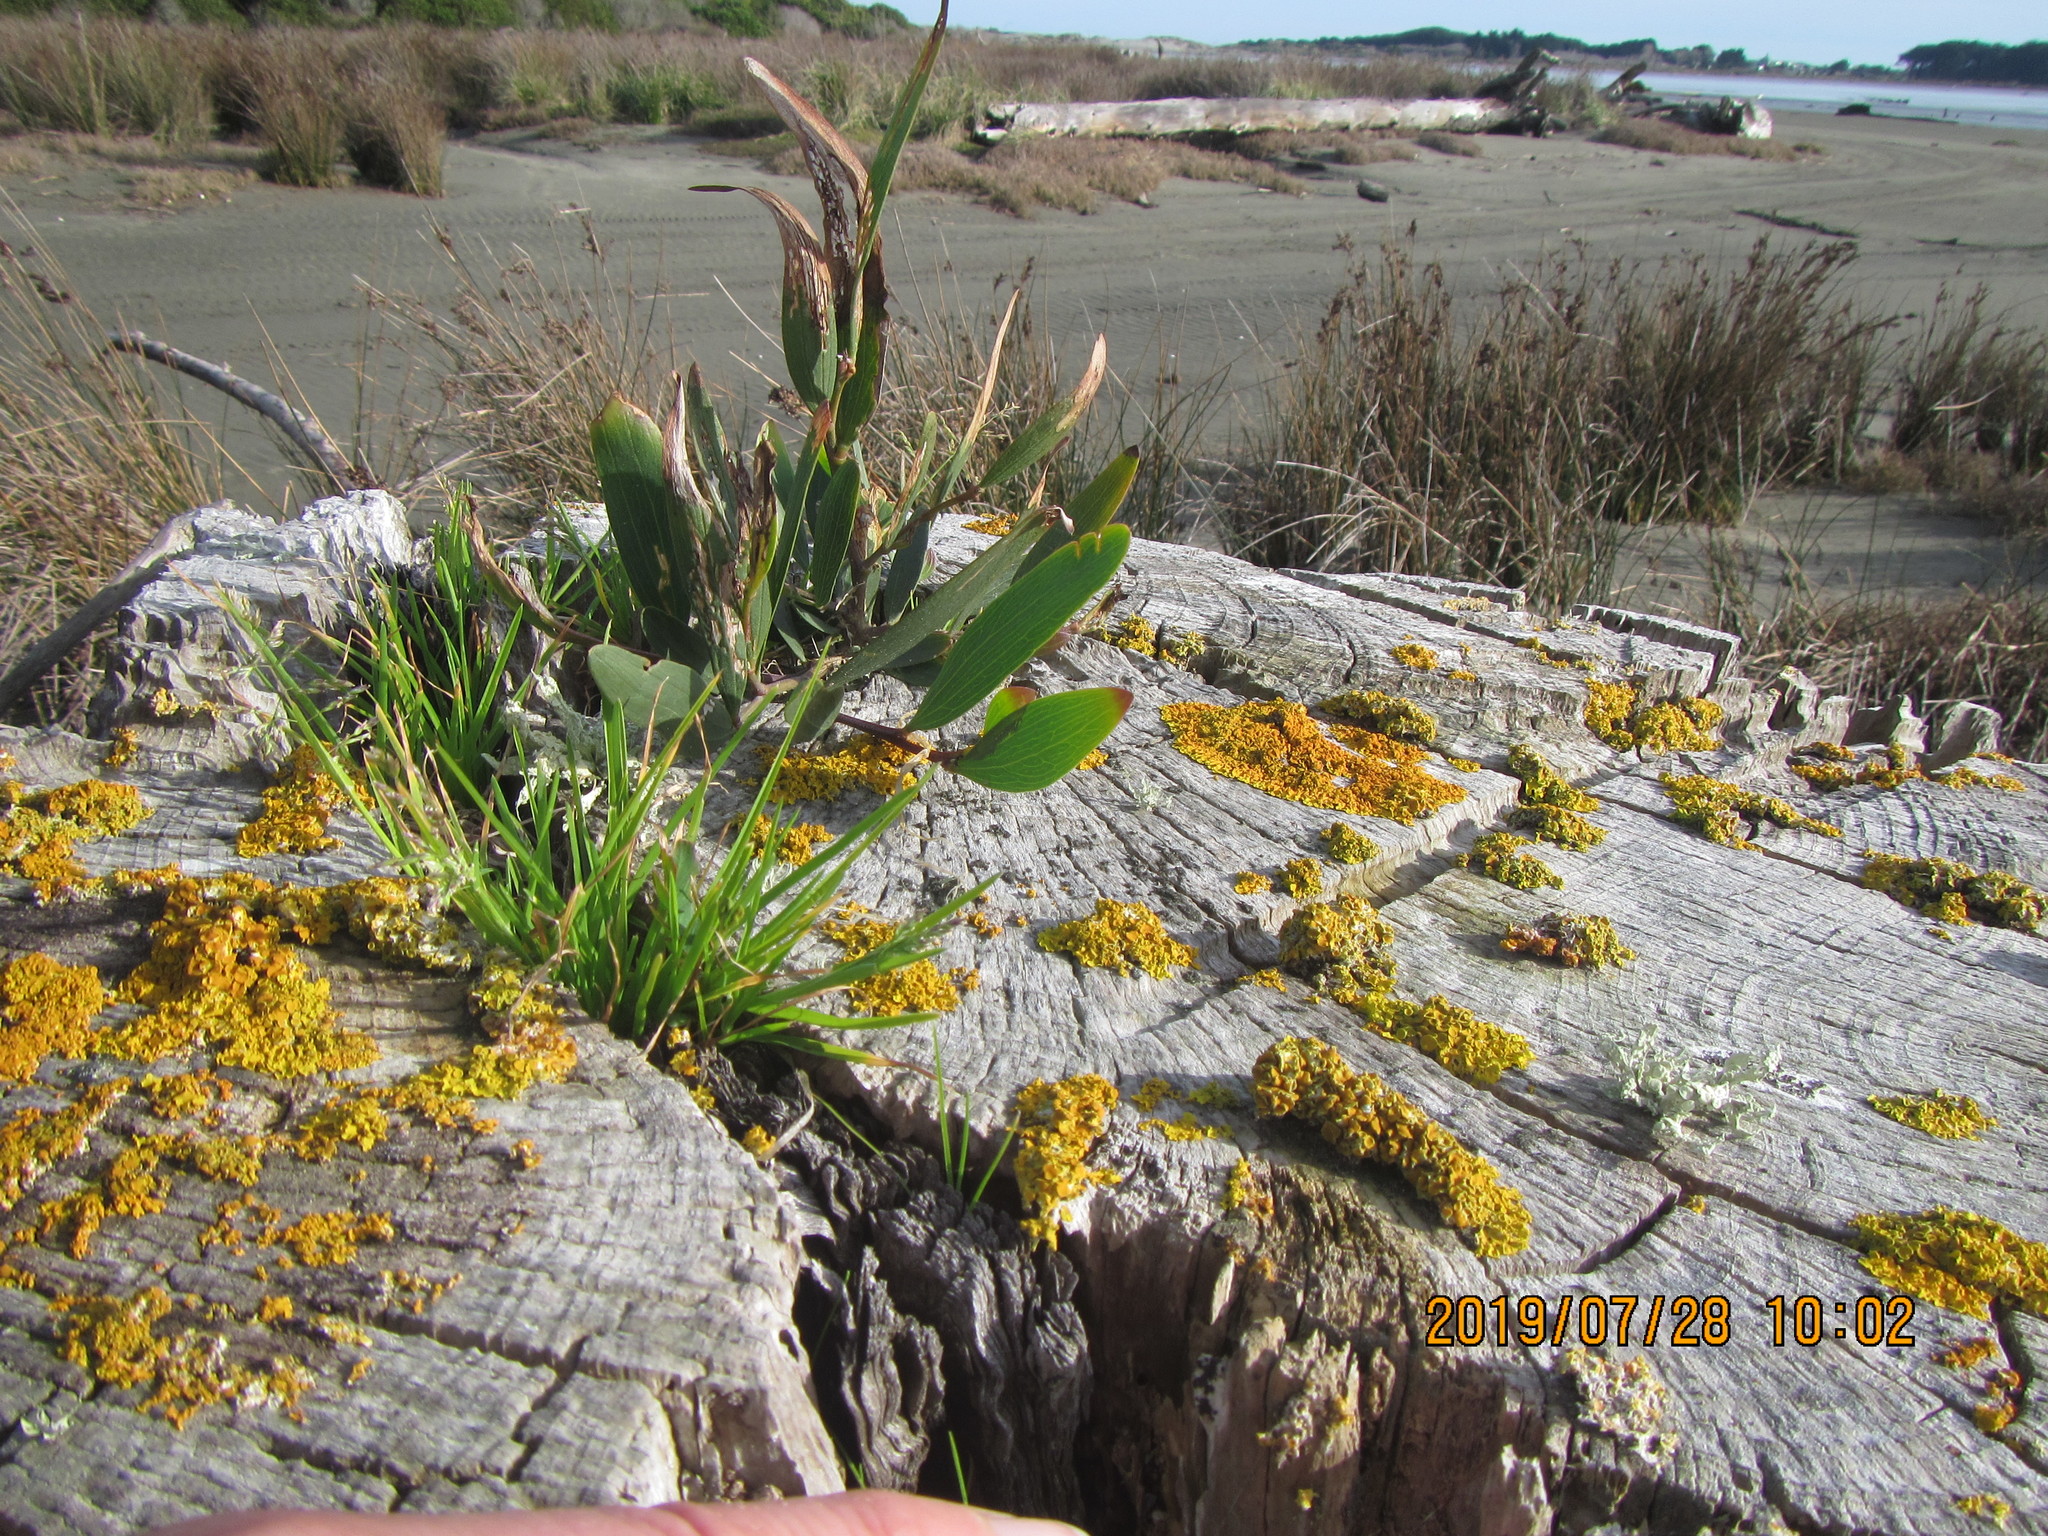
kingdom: Plantae
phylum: Tracheophyta
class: Magnoliopsida
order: Fabales
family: Fabaceae
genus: Acacia
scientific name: Acacia longifolia
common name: Sydney golden wattle
